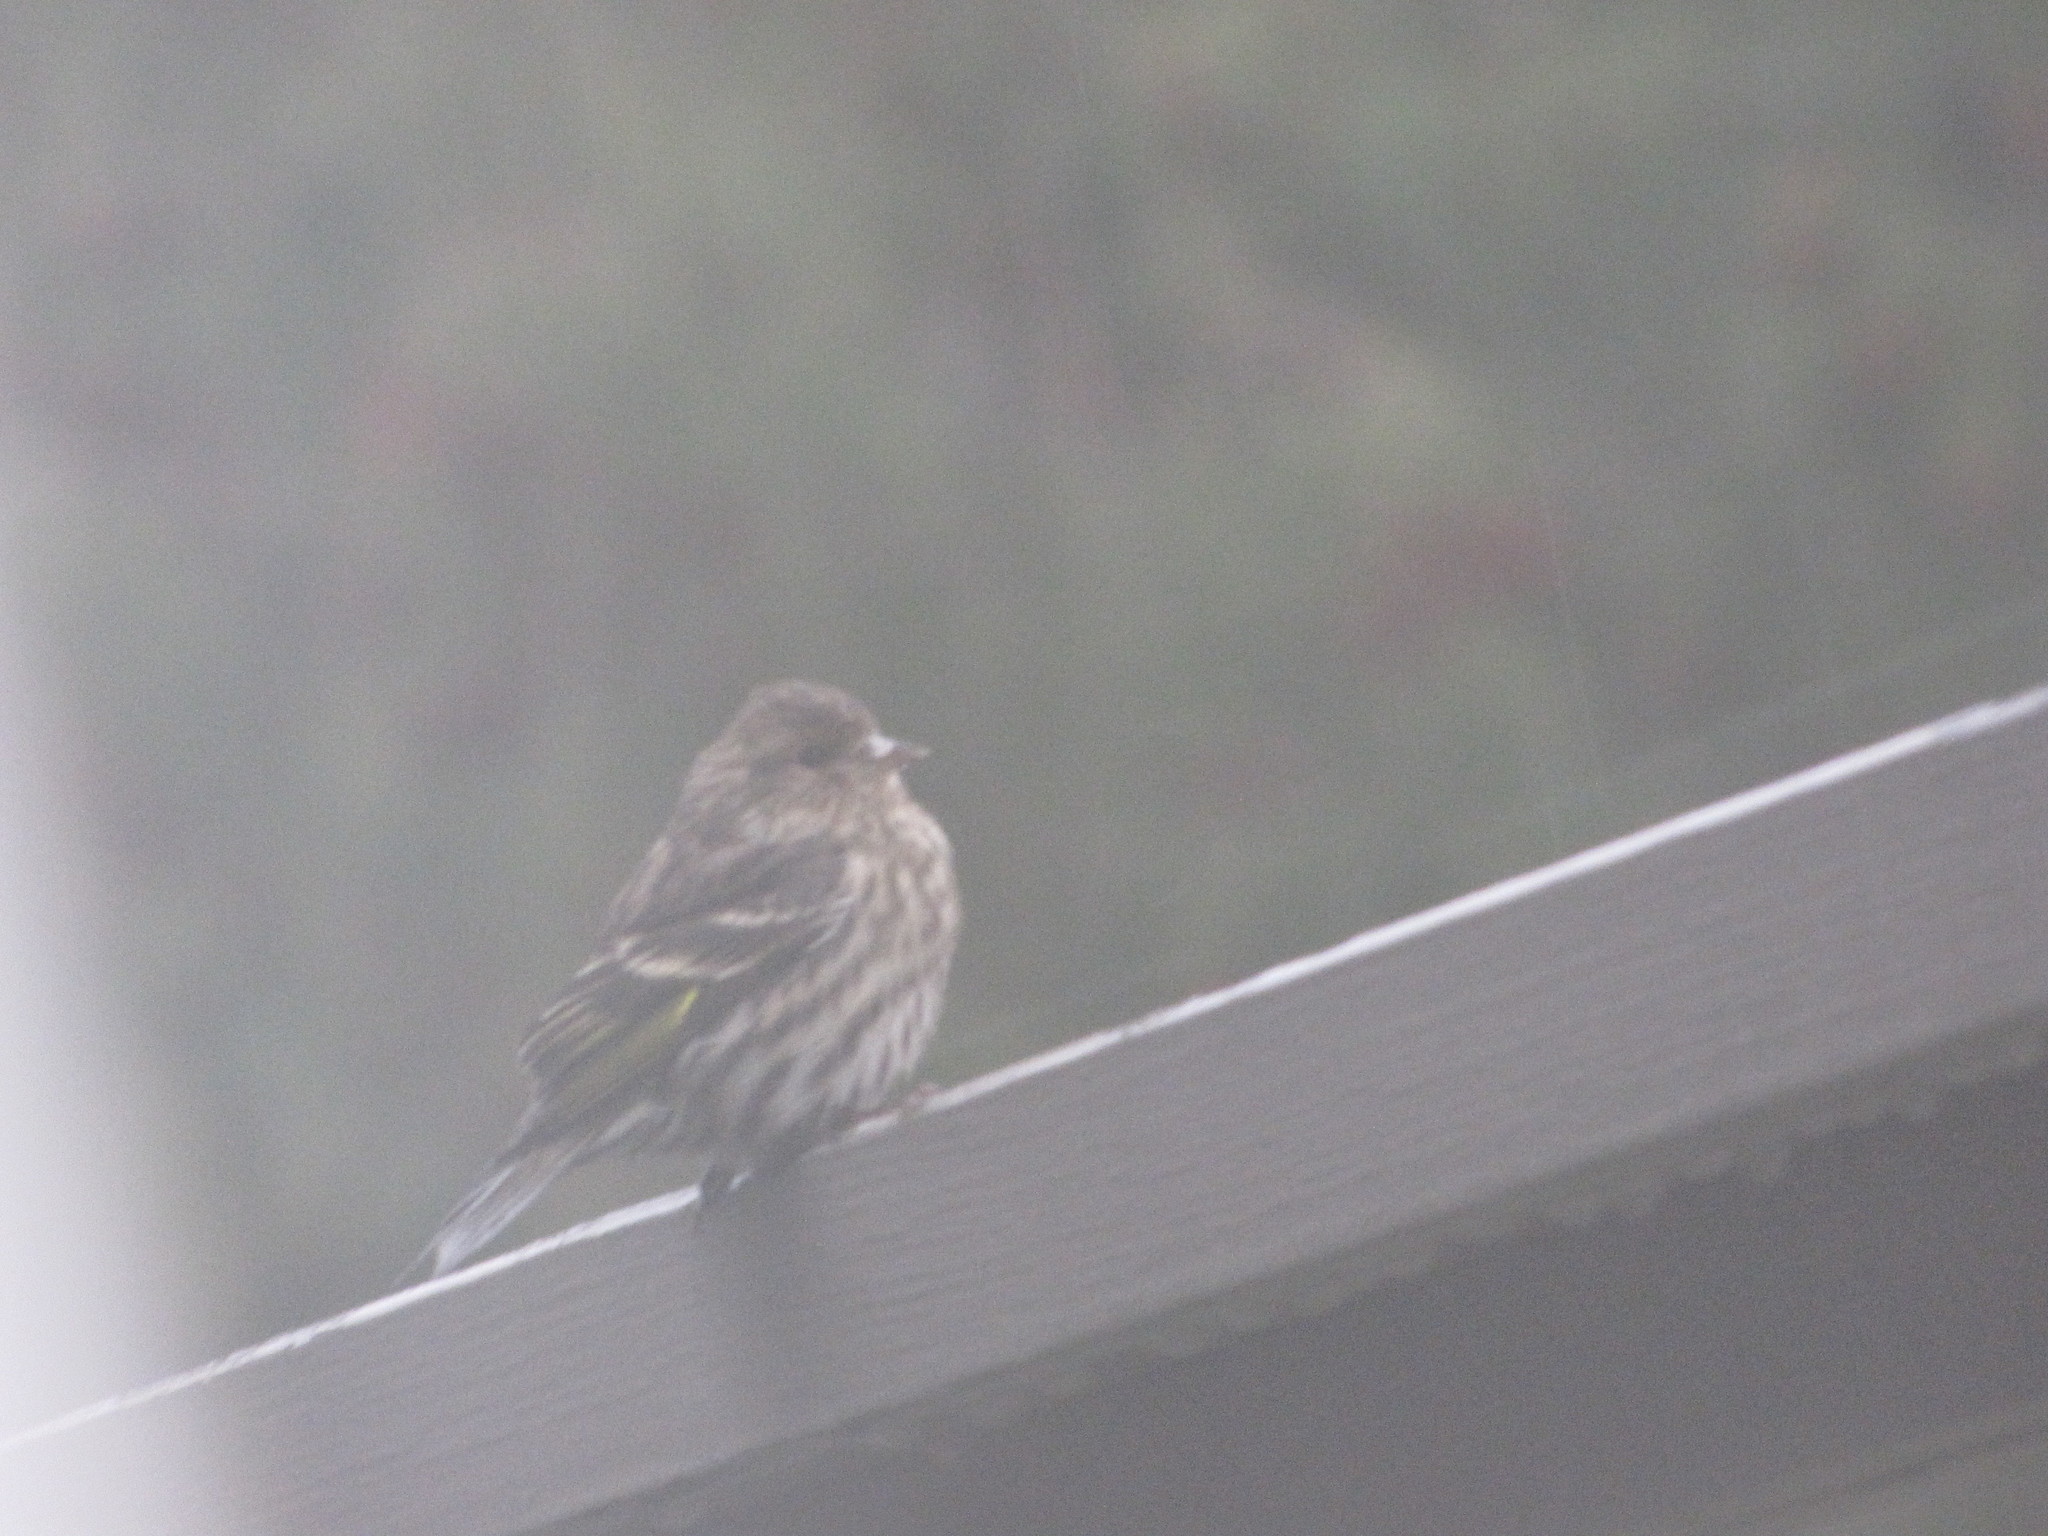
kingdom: Animalia
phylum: Chordata
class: Aves
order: Passeriformes
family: Fringillidae
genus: Spinus
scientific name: Spinus pinus
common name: Pine siskin
